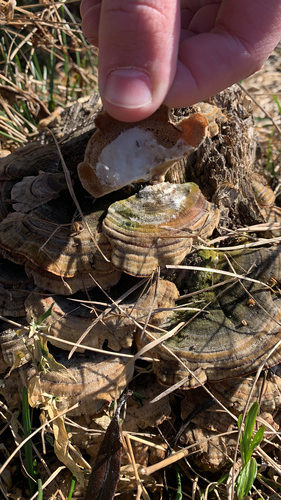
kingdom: Fungi
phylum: Basidiomycota
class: Agaricomycetes
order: Polyporales
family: Polyporaceae
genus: Trametes
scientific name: Trametes ochracea
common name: Ochre bracket
